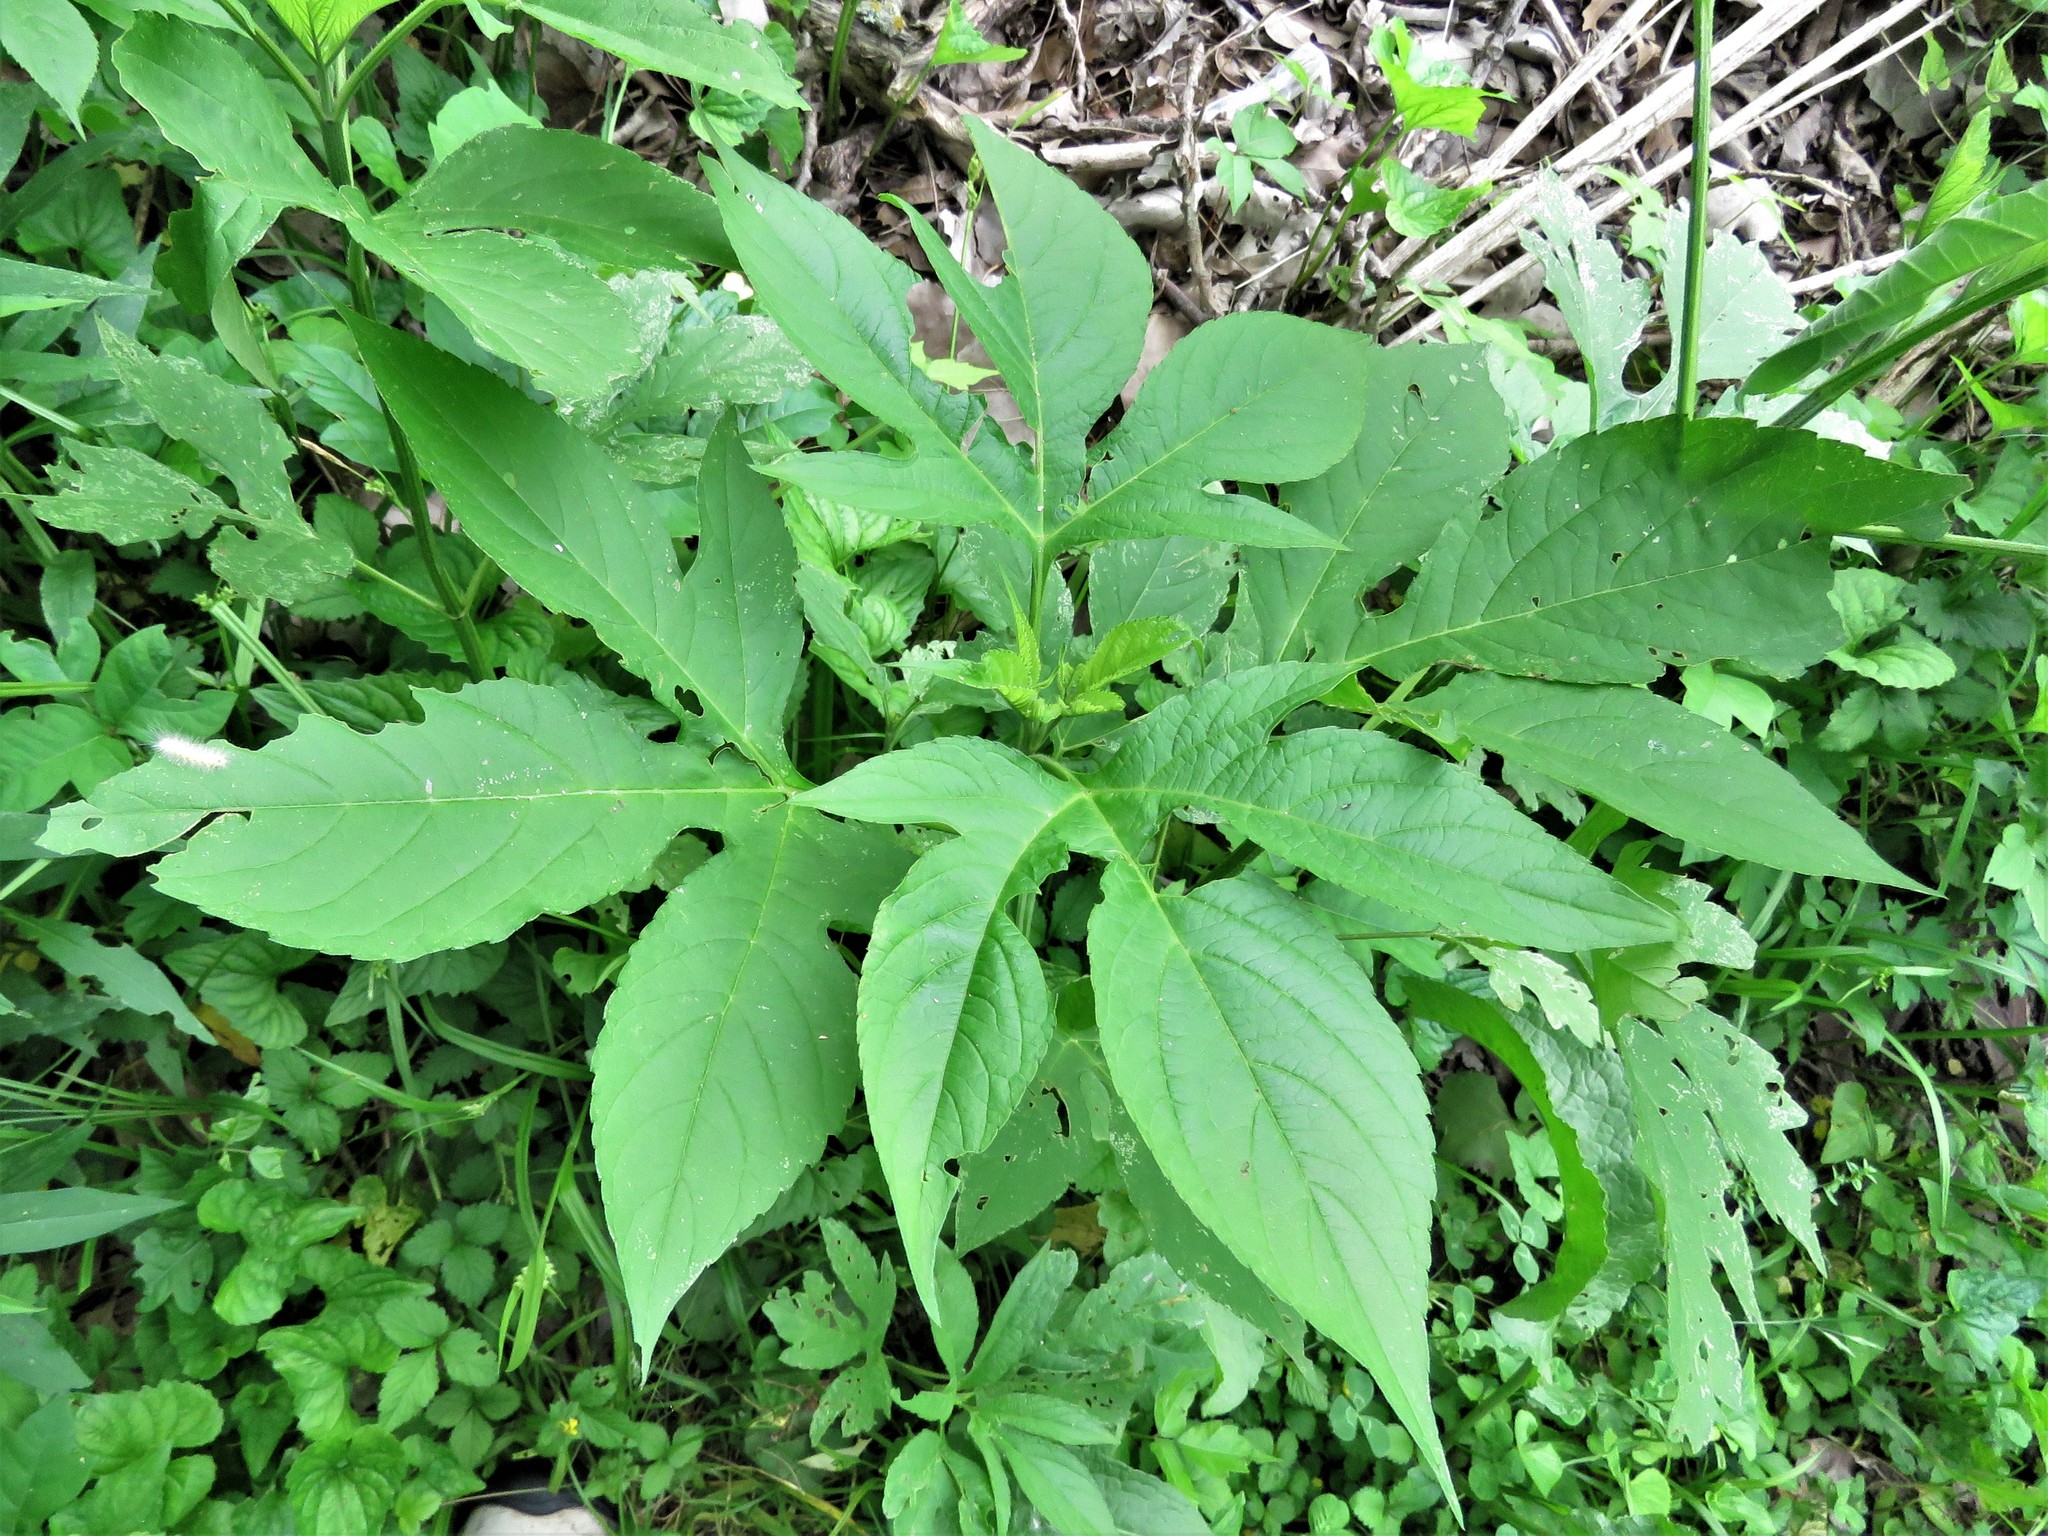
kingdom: Plantae
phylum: Tracheophyta
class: Magnoliopsida
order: Asterales
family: Asteraceae
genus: Ambrosia
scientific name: Ambrosia trifida
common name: Giant ragweed
